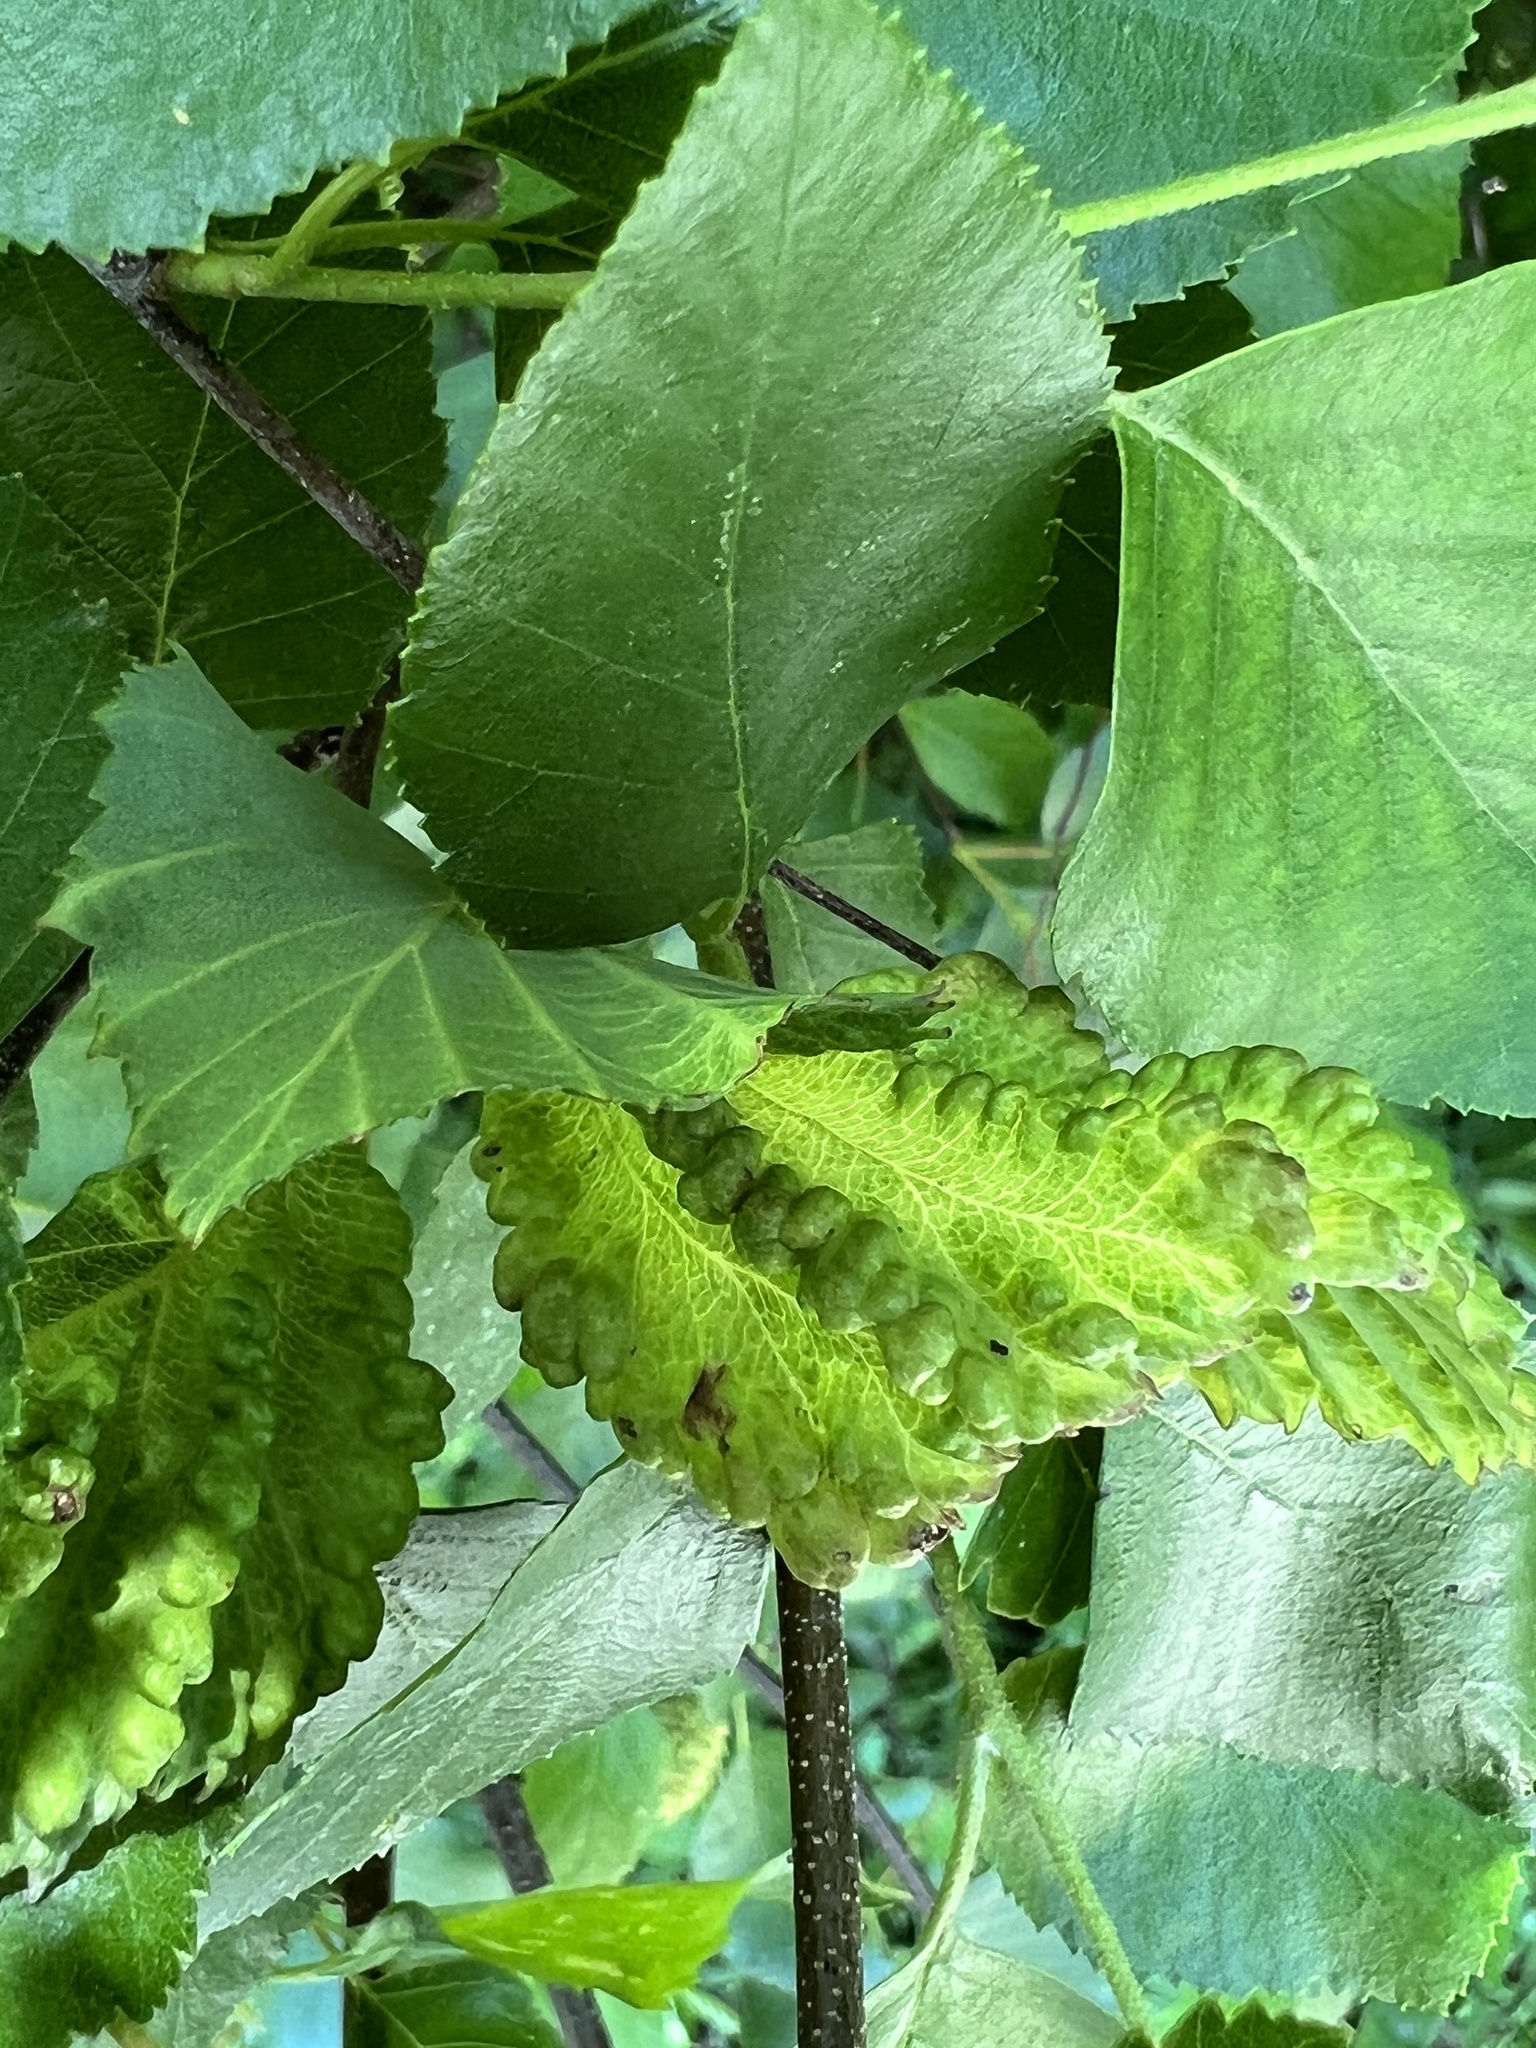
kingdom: Animalia
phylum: Arthropoda
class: Insecta
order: Hemiptera
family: Aphididae
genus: Hamamelistes
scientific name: Hamamelistes spinosus
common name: Witch hazel gall aphid
